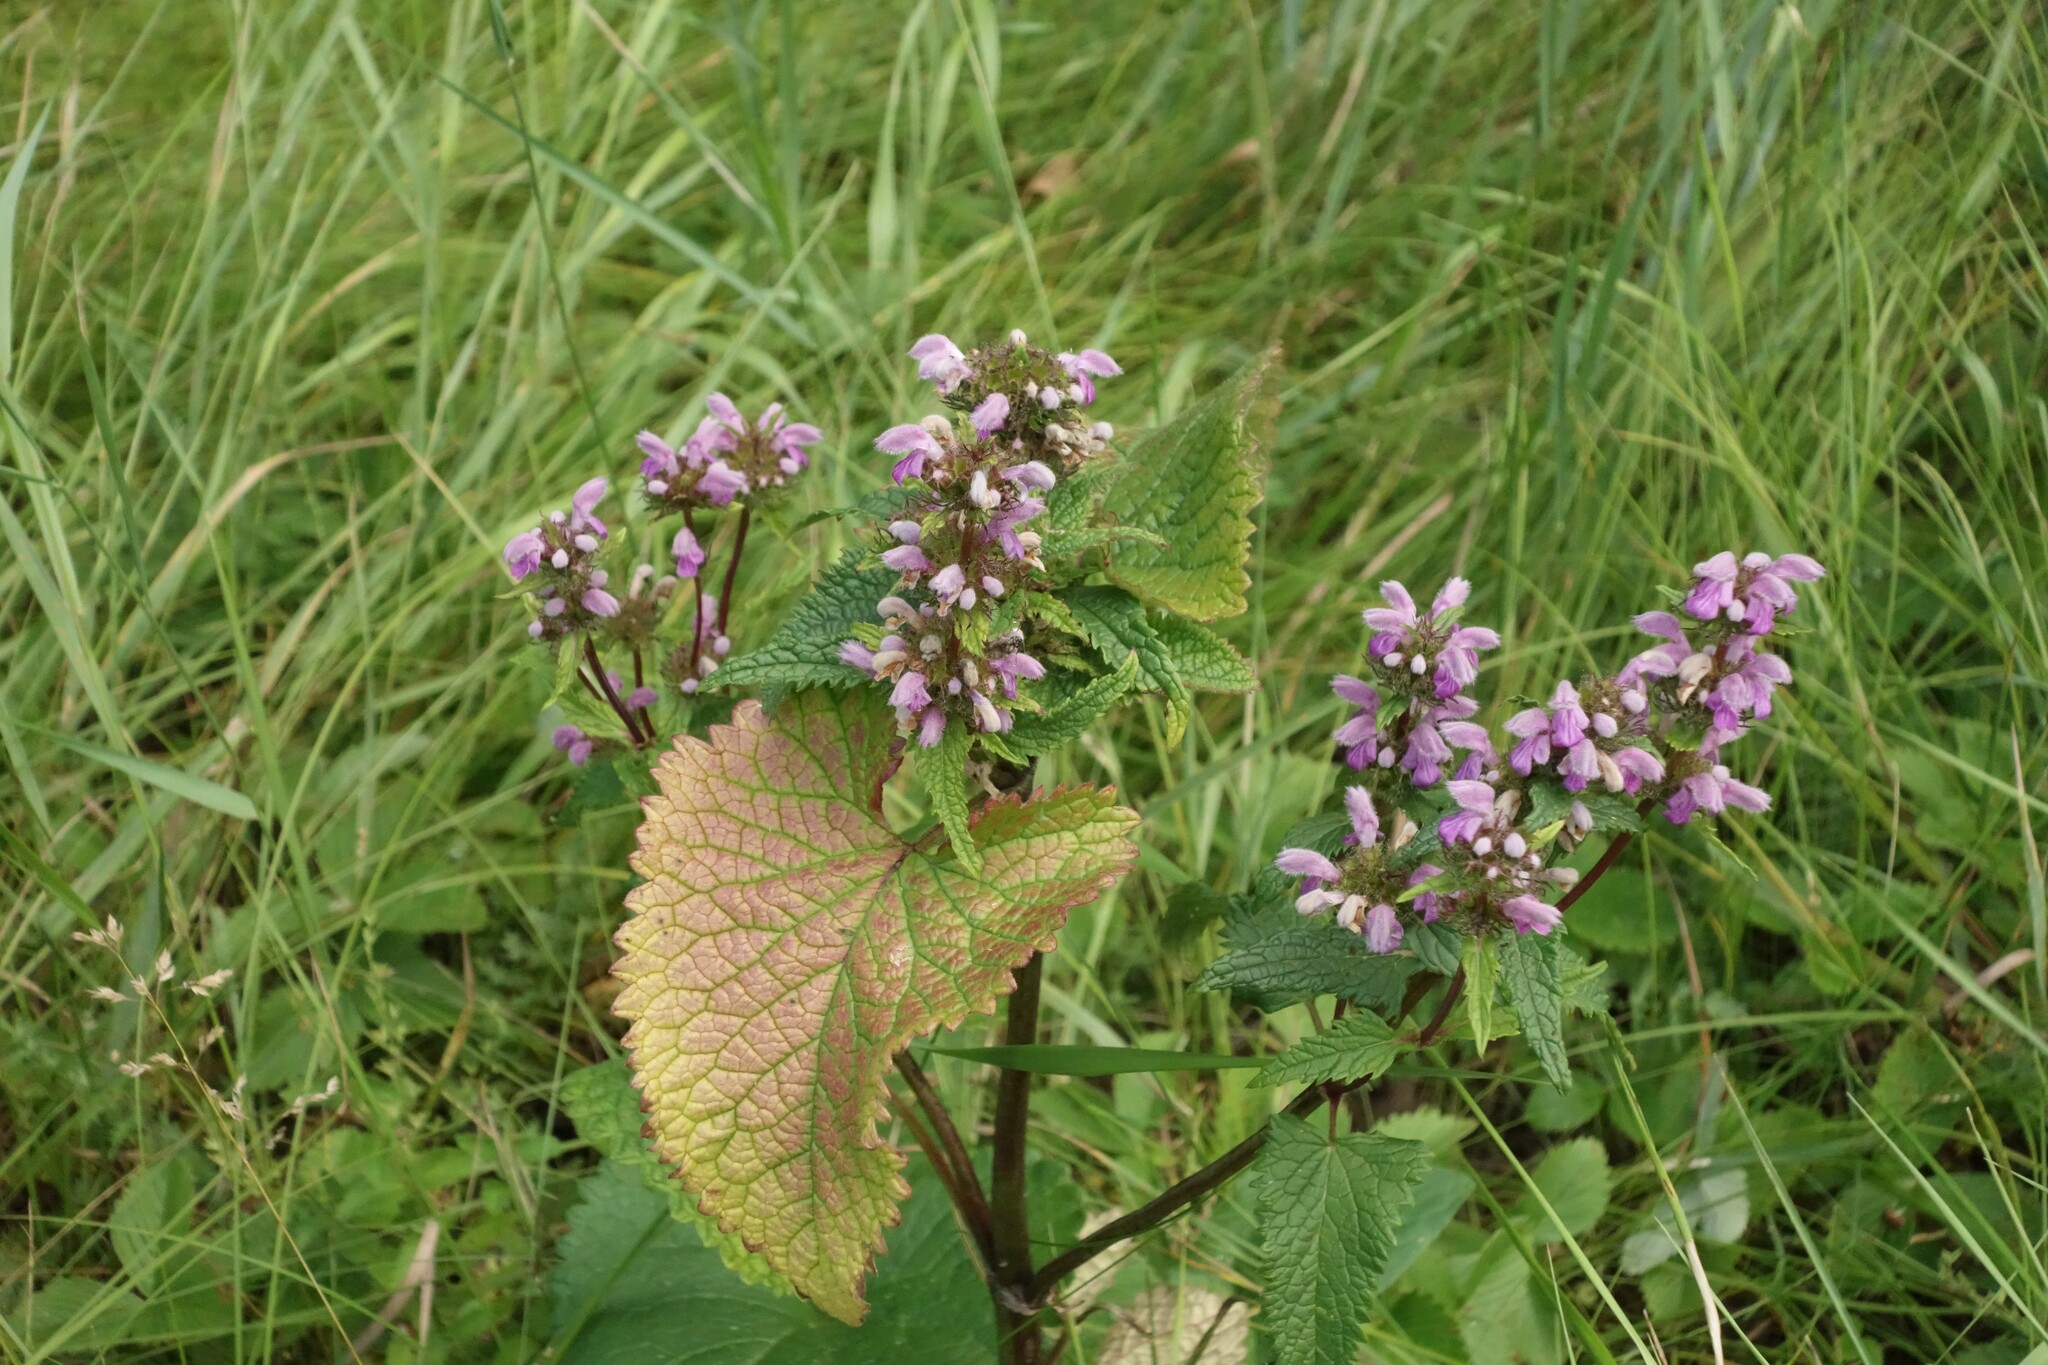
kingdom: Plantae
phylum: Tracheophyta
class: Magnoliopsida
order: Lamiales
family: Lamiaceae
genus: Phlomoides
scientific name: Phlomoides tuberosa
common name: Tuberous jerusalem sage
